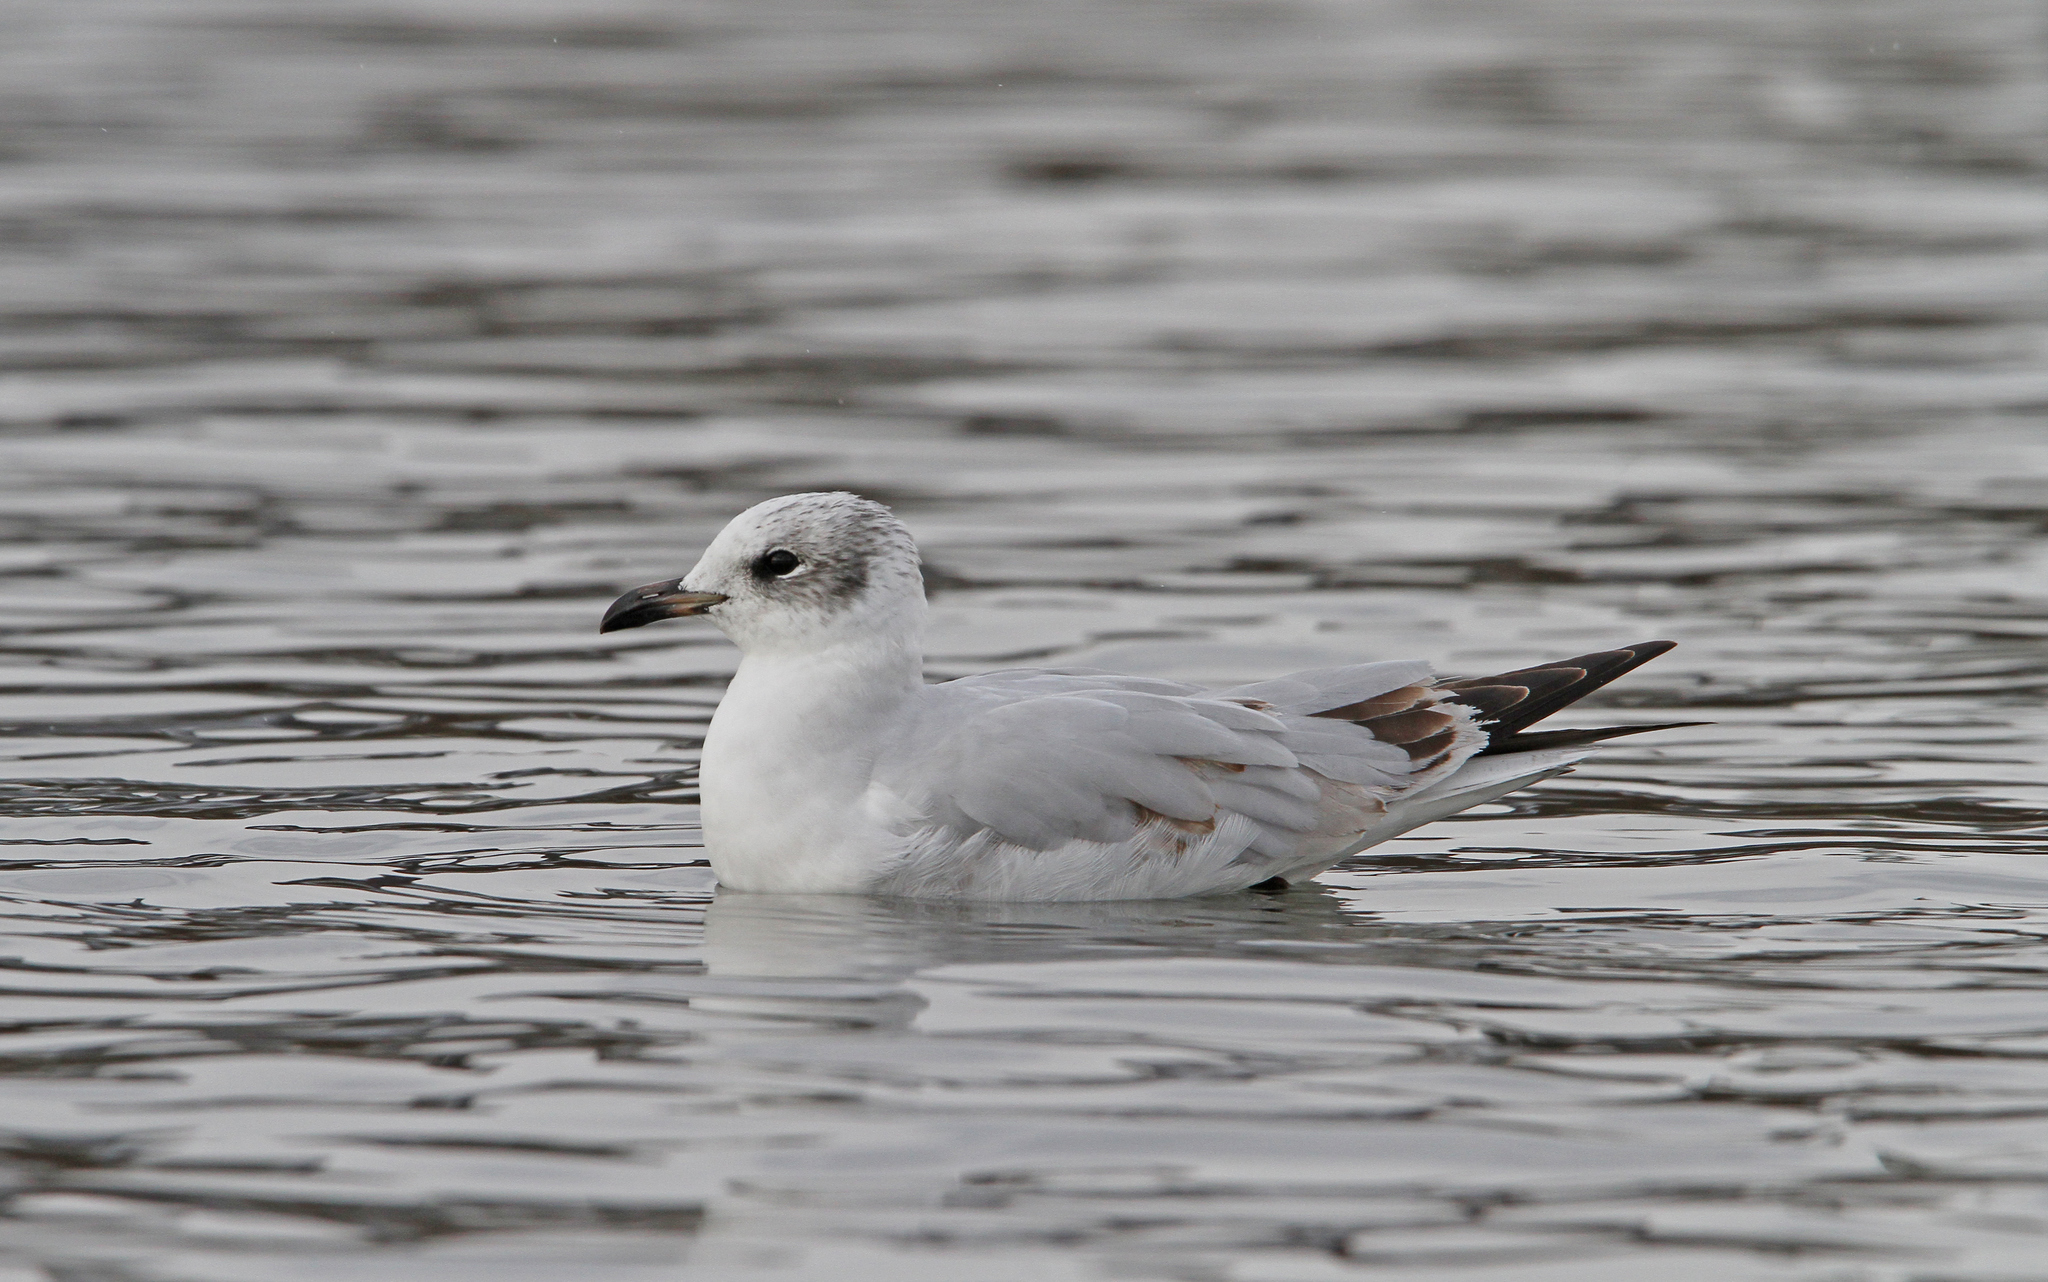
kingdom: Animalia
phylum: Chordata
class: Aves
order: Charadriiformes
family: Laridae
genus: Ichthyaetus
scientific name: Ichthyaetus melanocephalus
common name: Mediterranean gull
